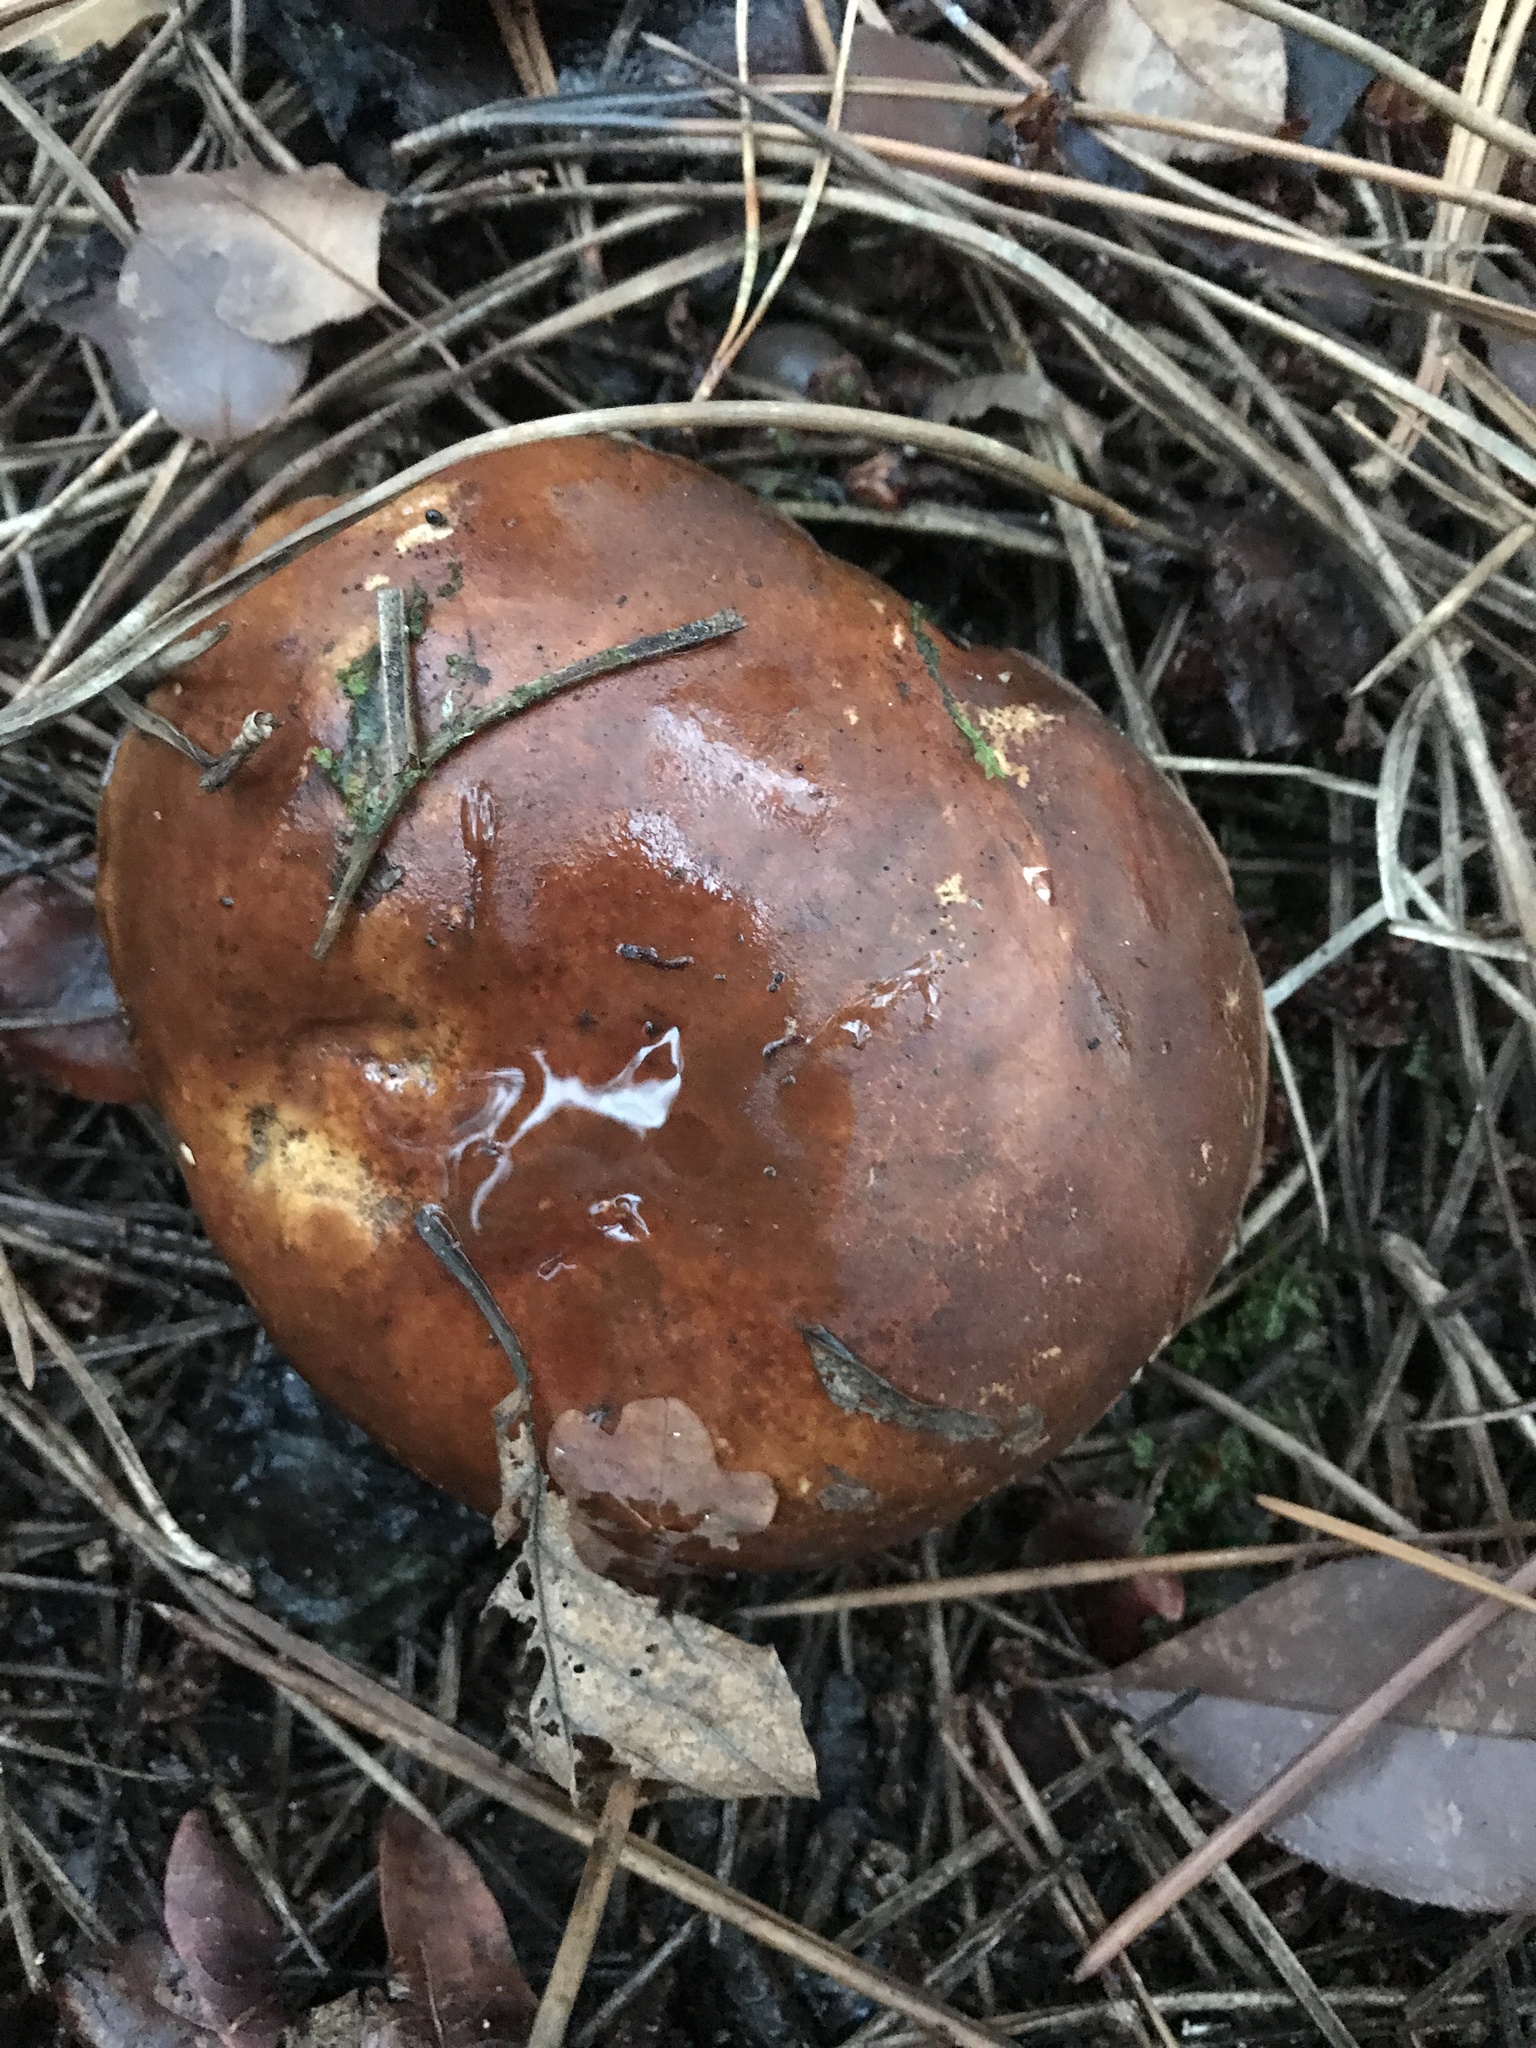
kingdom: Fungi
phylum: Basidiomycota
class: Agaricomycetes
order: Boletales
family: Boletaceae
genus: Imleria
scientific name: Imleria badia
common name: Bay bolete
